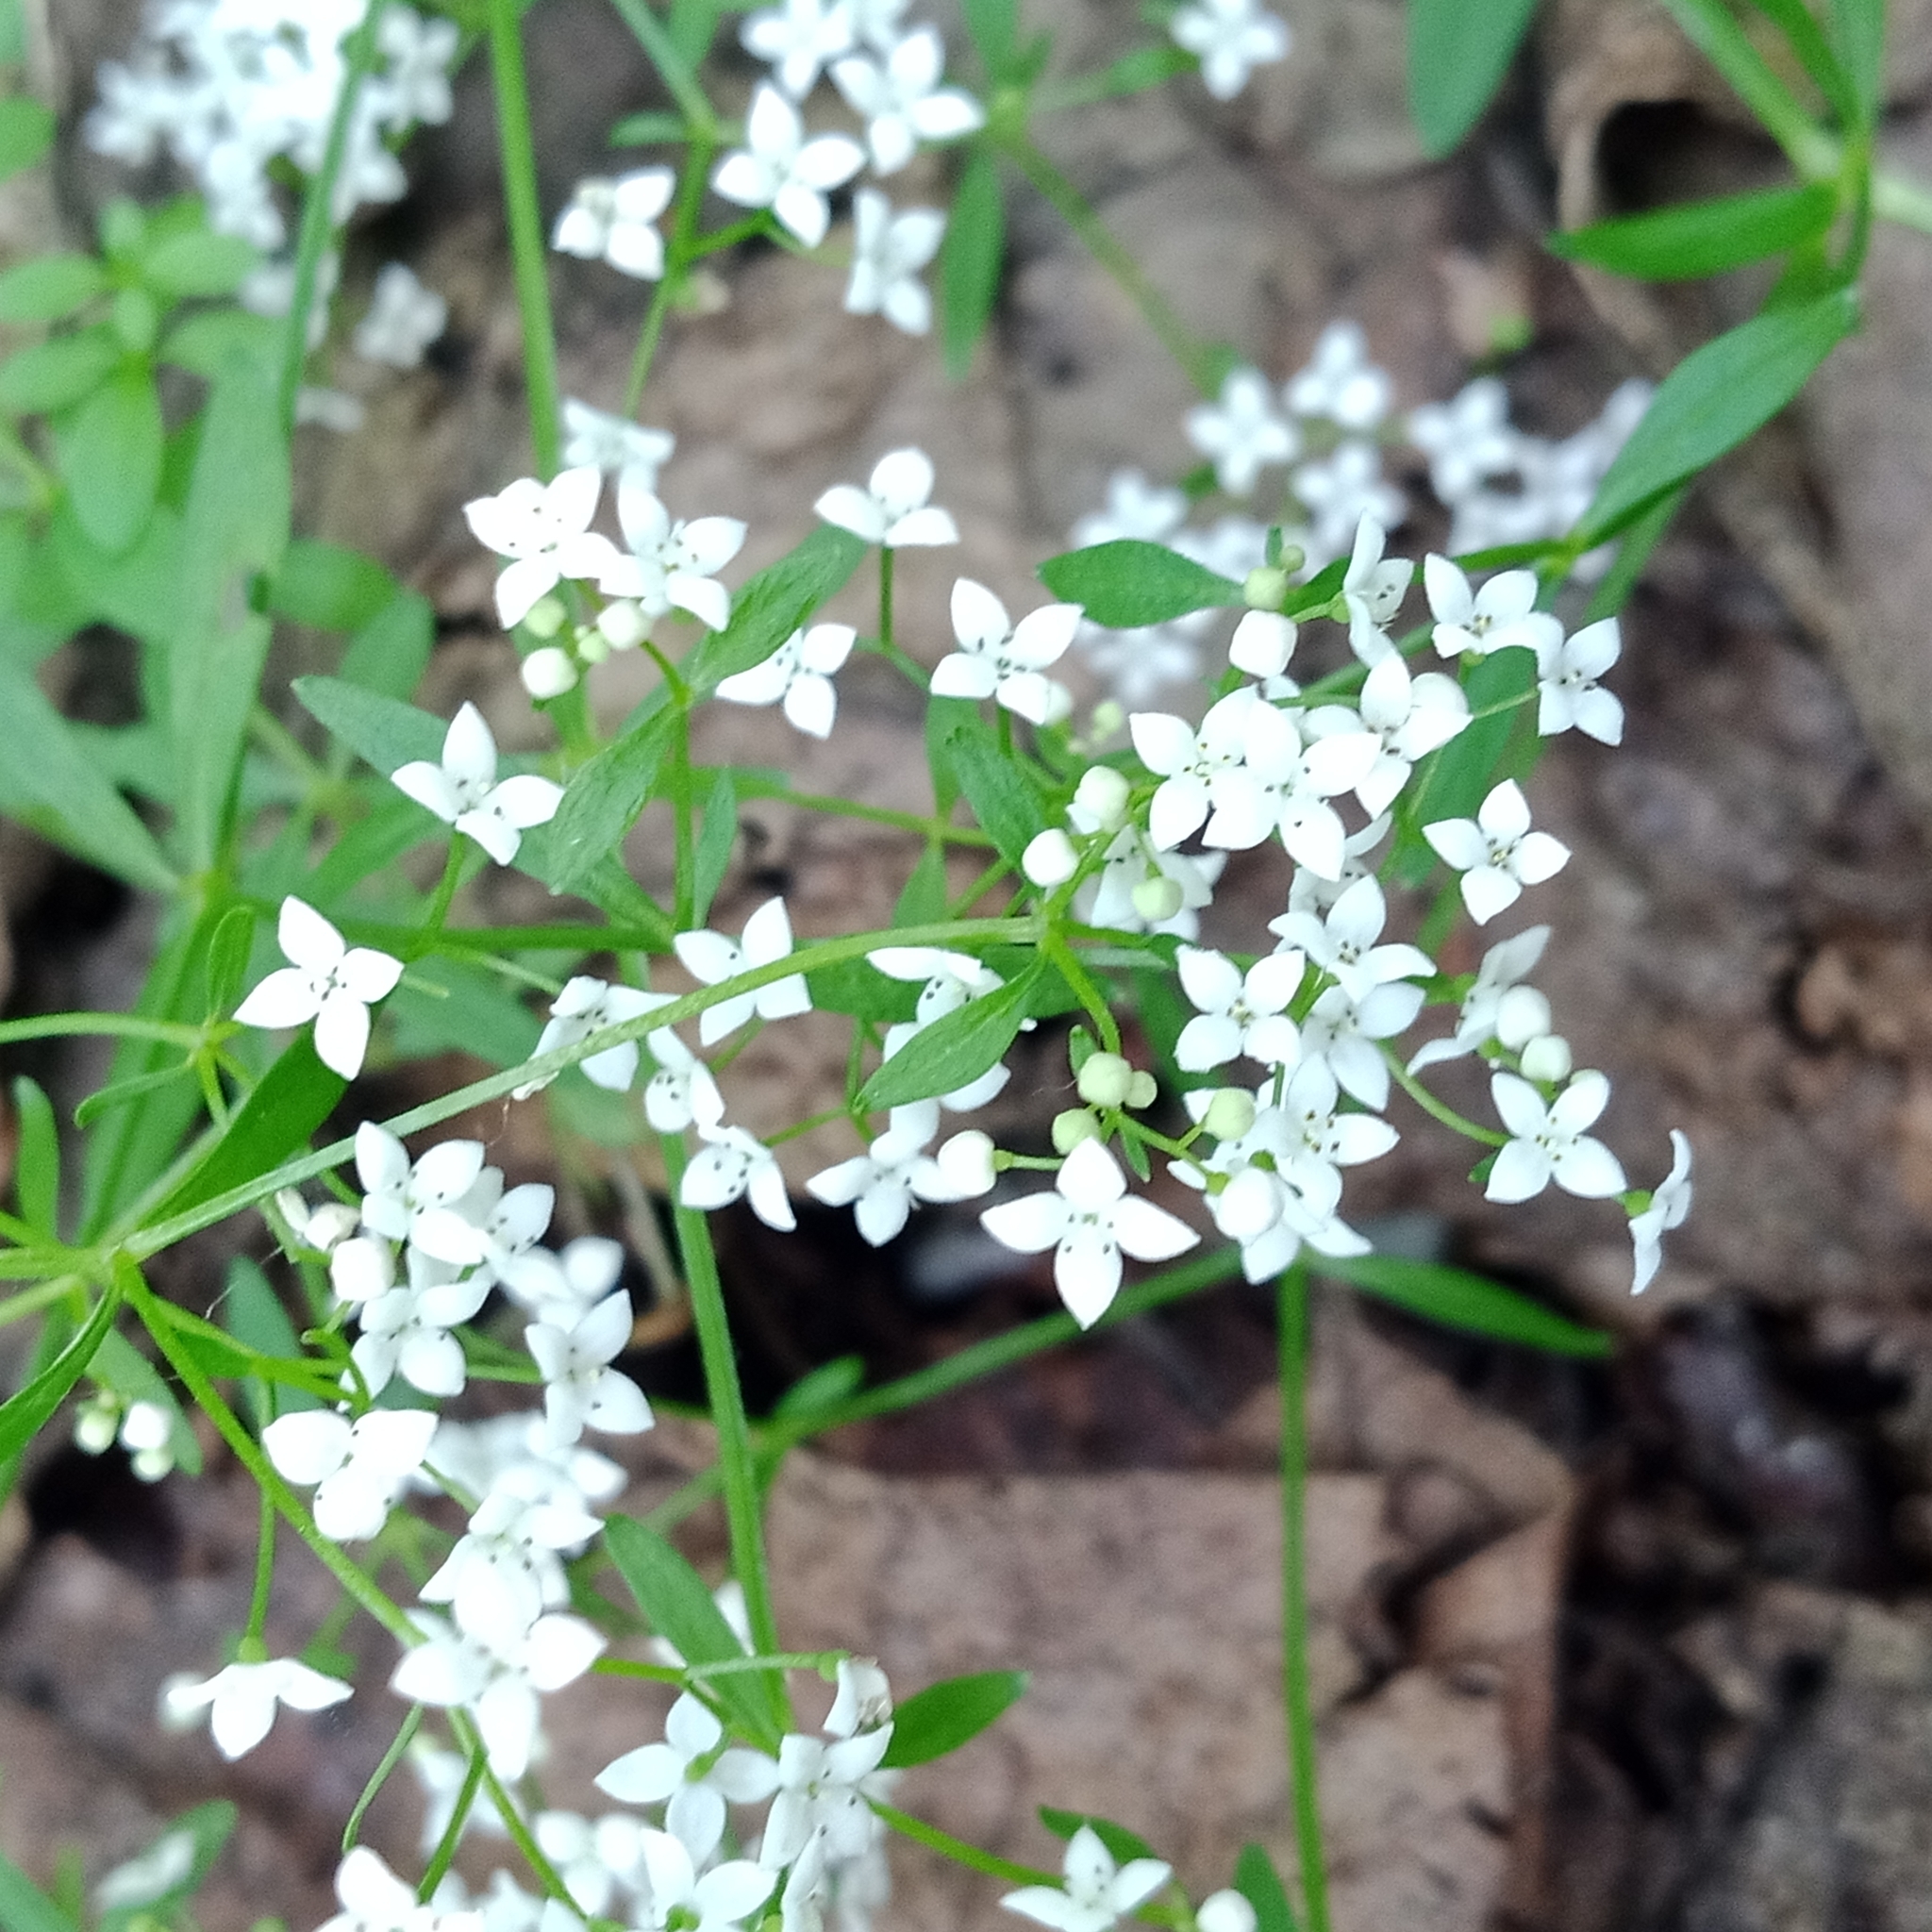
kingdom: Plantae
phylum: Tracheophyta
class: Magnoliopsida
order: Gentianales
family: Rubiaceae
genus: Galium
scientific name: Galium palustre
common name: Common marsh-bedstraw
